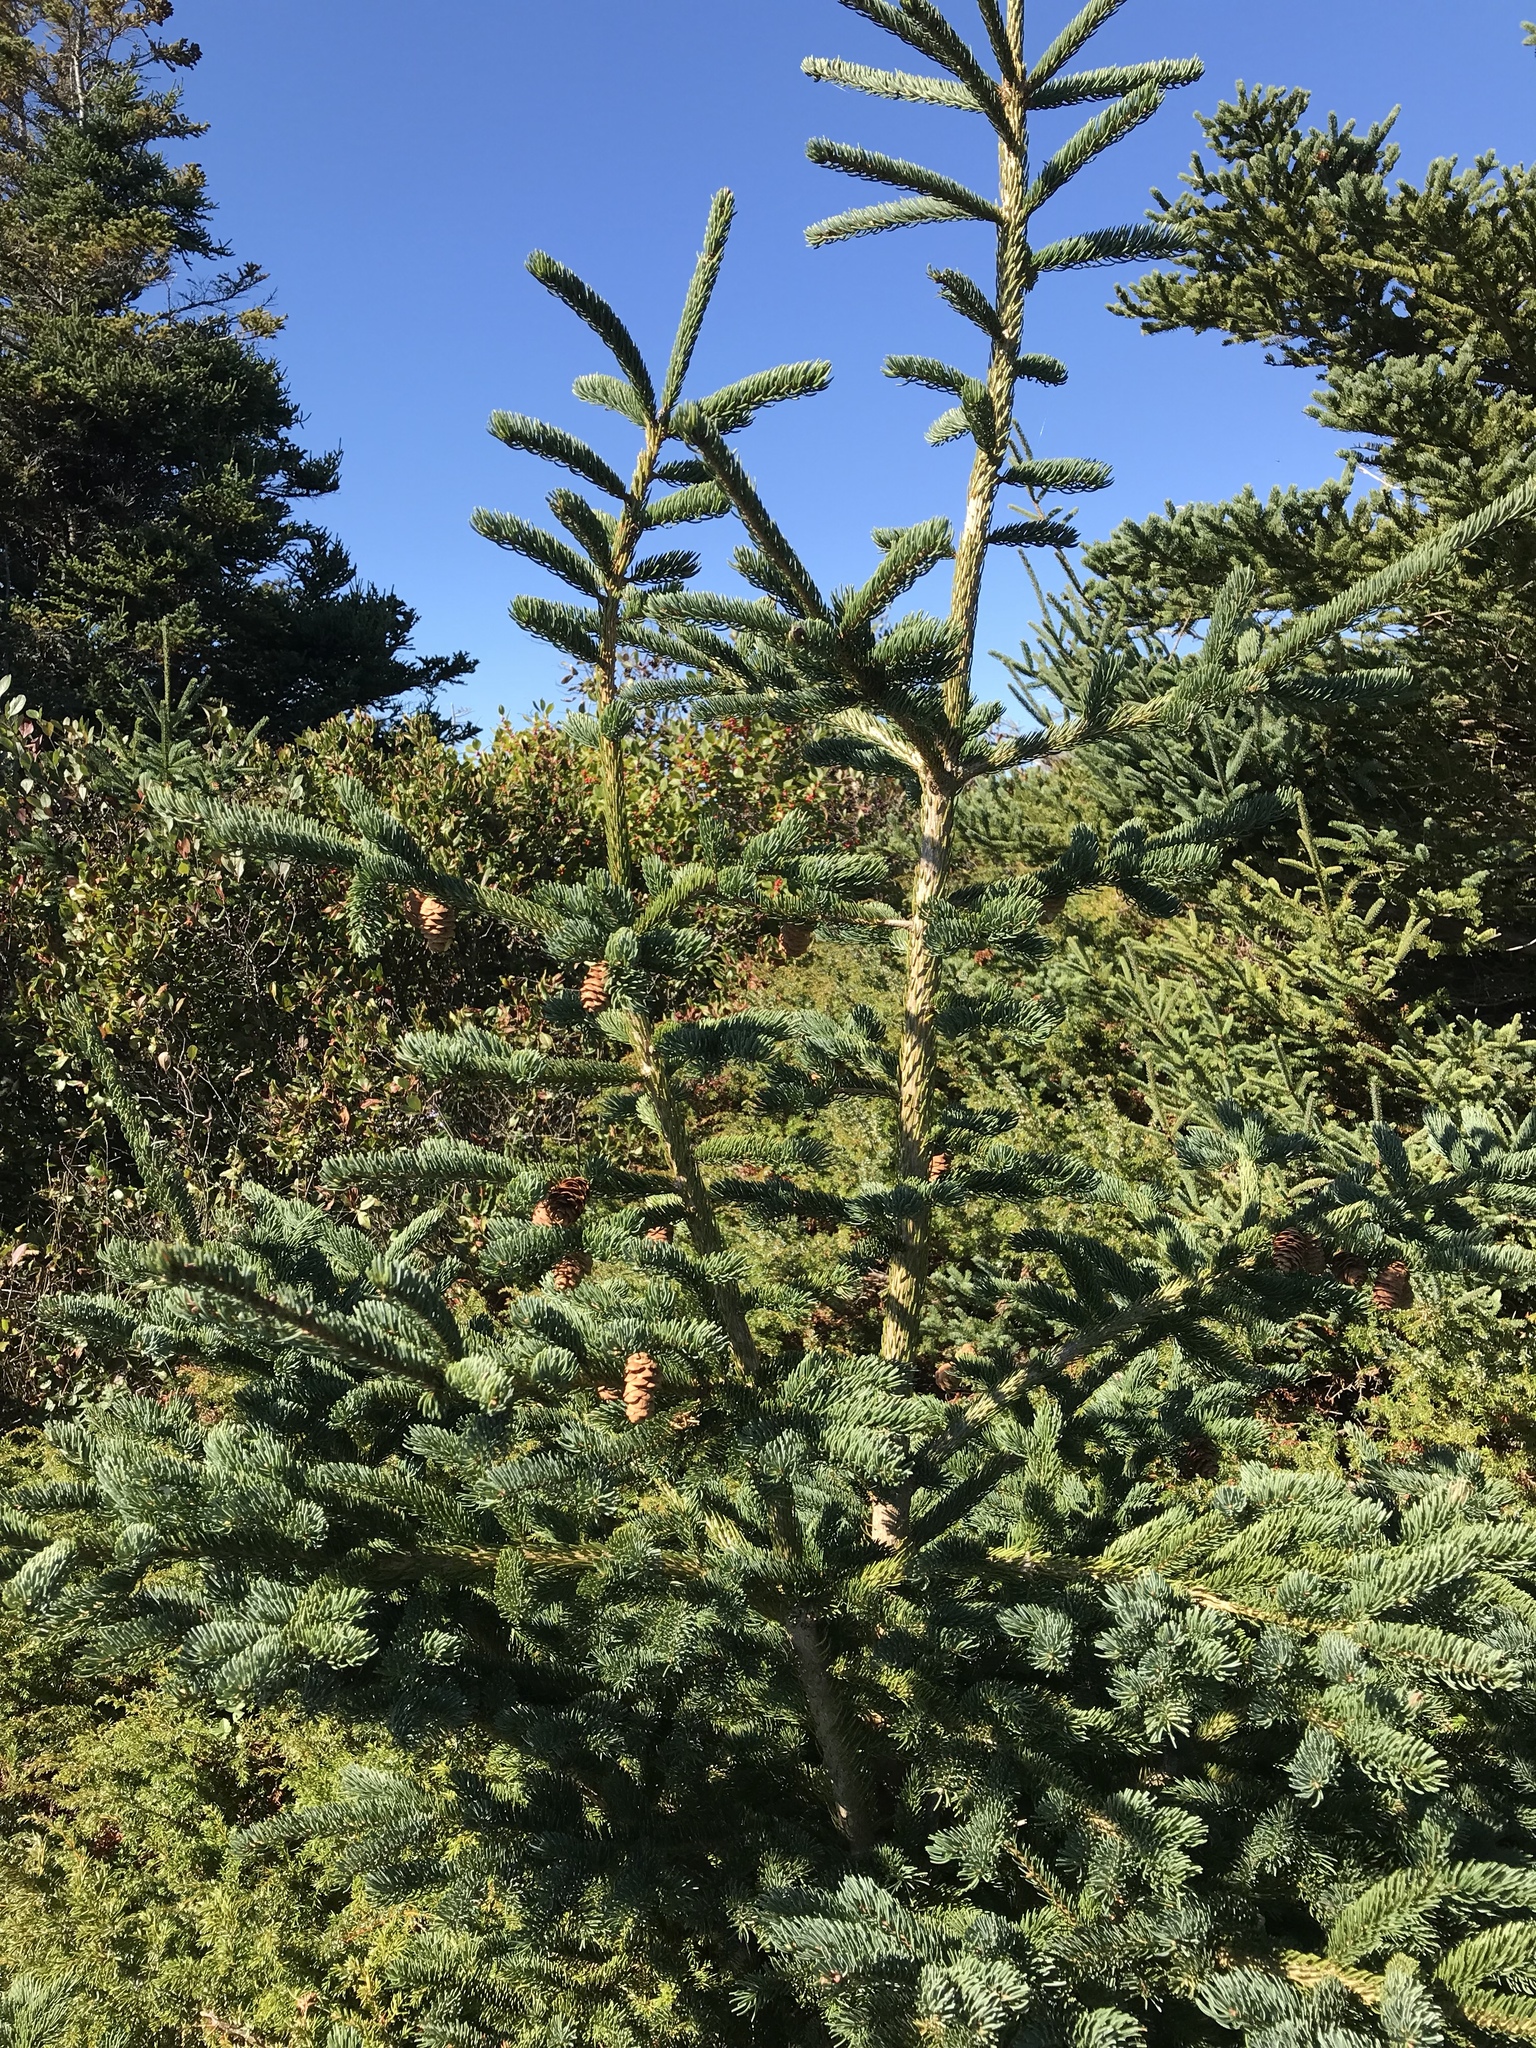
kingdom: Plantae
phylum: Tracheophyta
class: Pinopsida
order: Pinales
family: Pinaceae
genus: Picea
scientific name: Picea glauca
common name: White spruce
